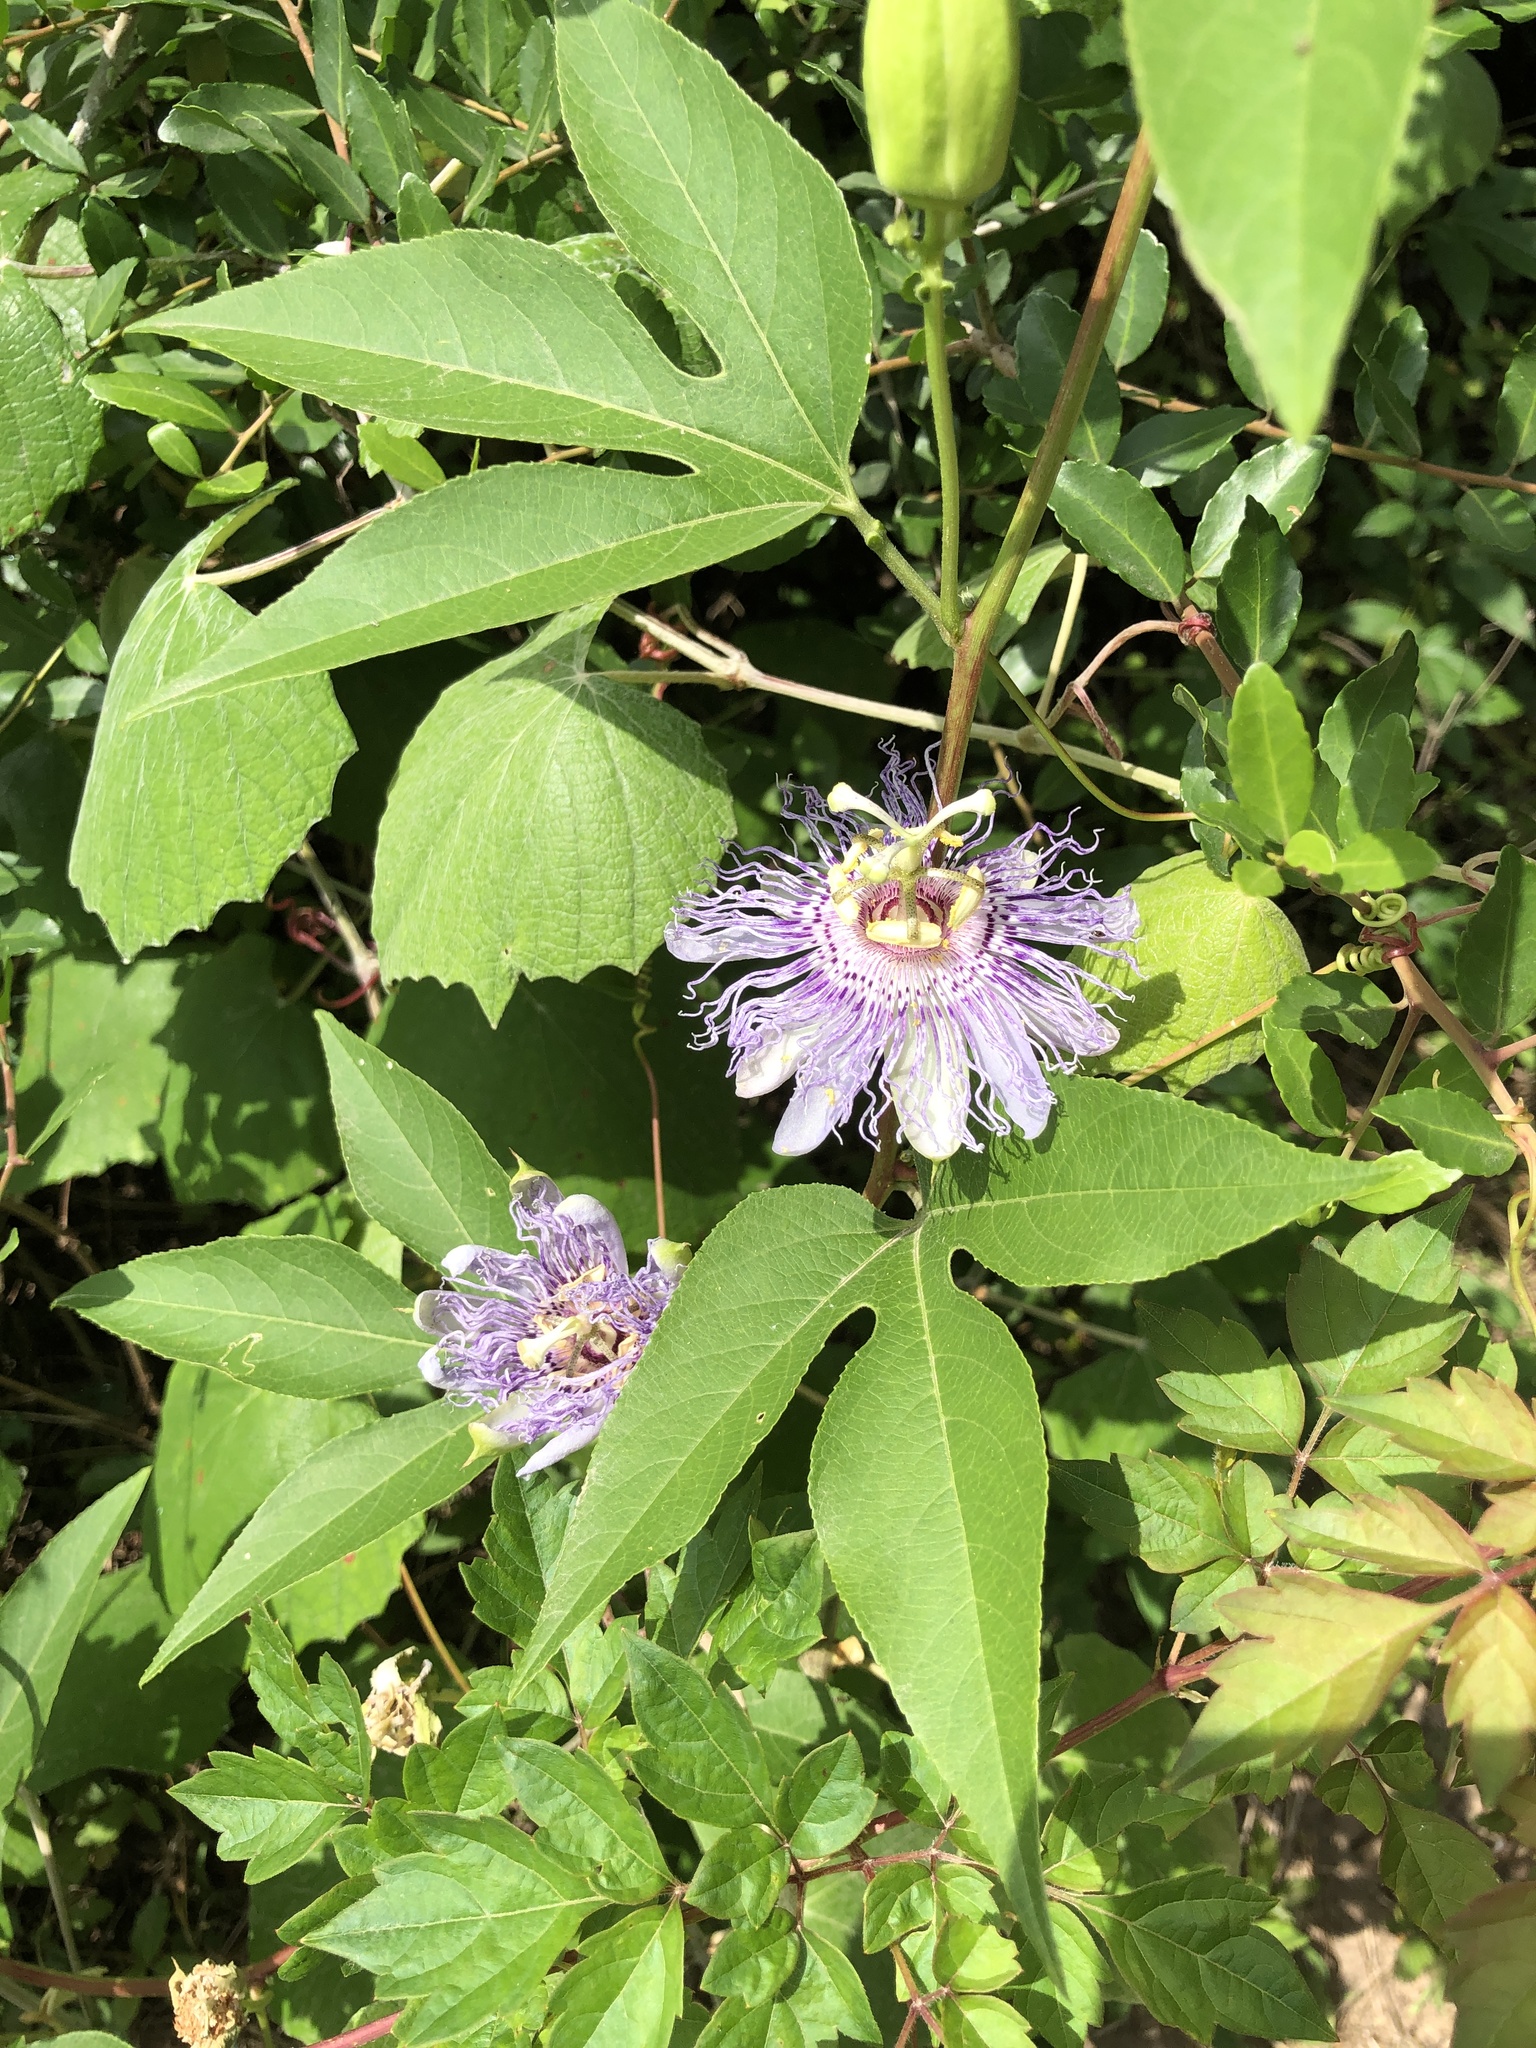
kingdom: Plantae
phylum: Tracheophyta
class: Magnoliopsida
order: Malpighiales
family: Passifloraceae
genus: Passiflora
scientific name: Passiflora incarnata
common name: Apricot-vine
